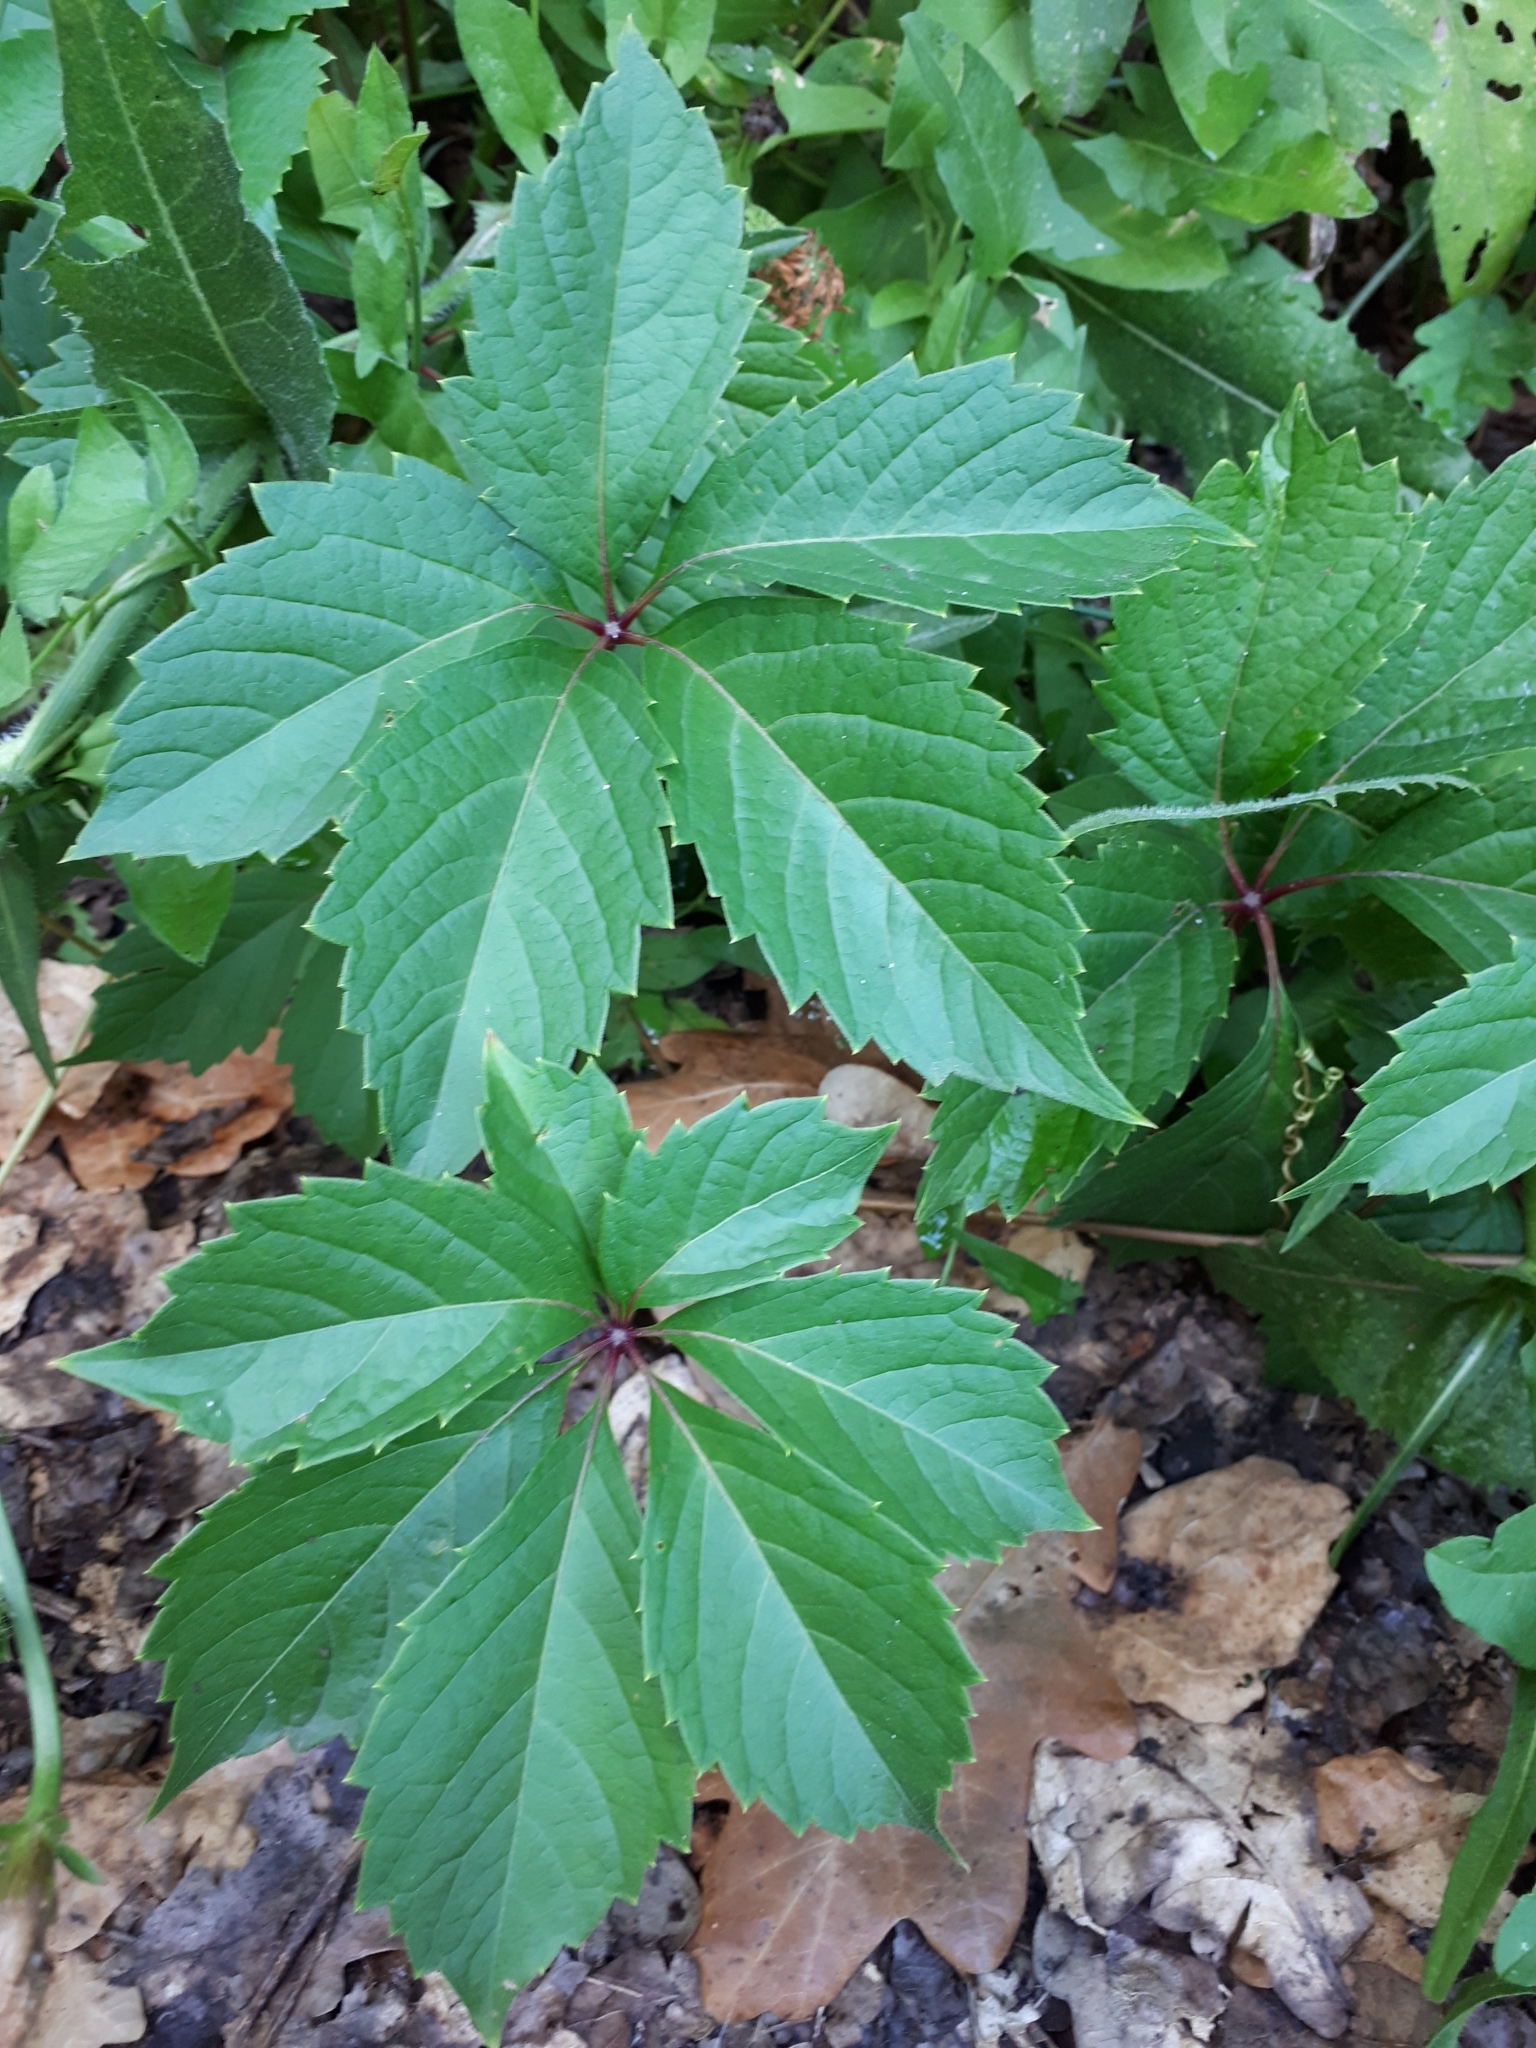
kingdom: Plantae
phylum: Tracheophyta
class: Magnoliopsida
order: Vitales
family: Vitaceae
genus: Parthenocissus
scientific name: Parthenocissus inserta
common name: False virginia-creeper
